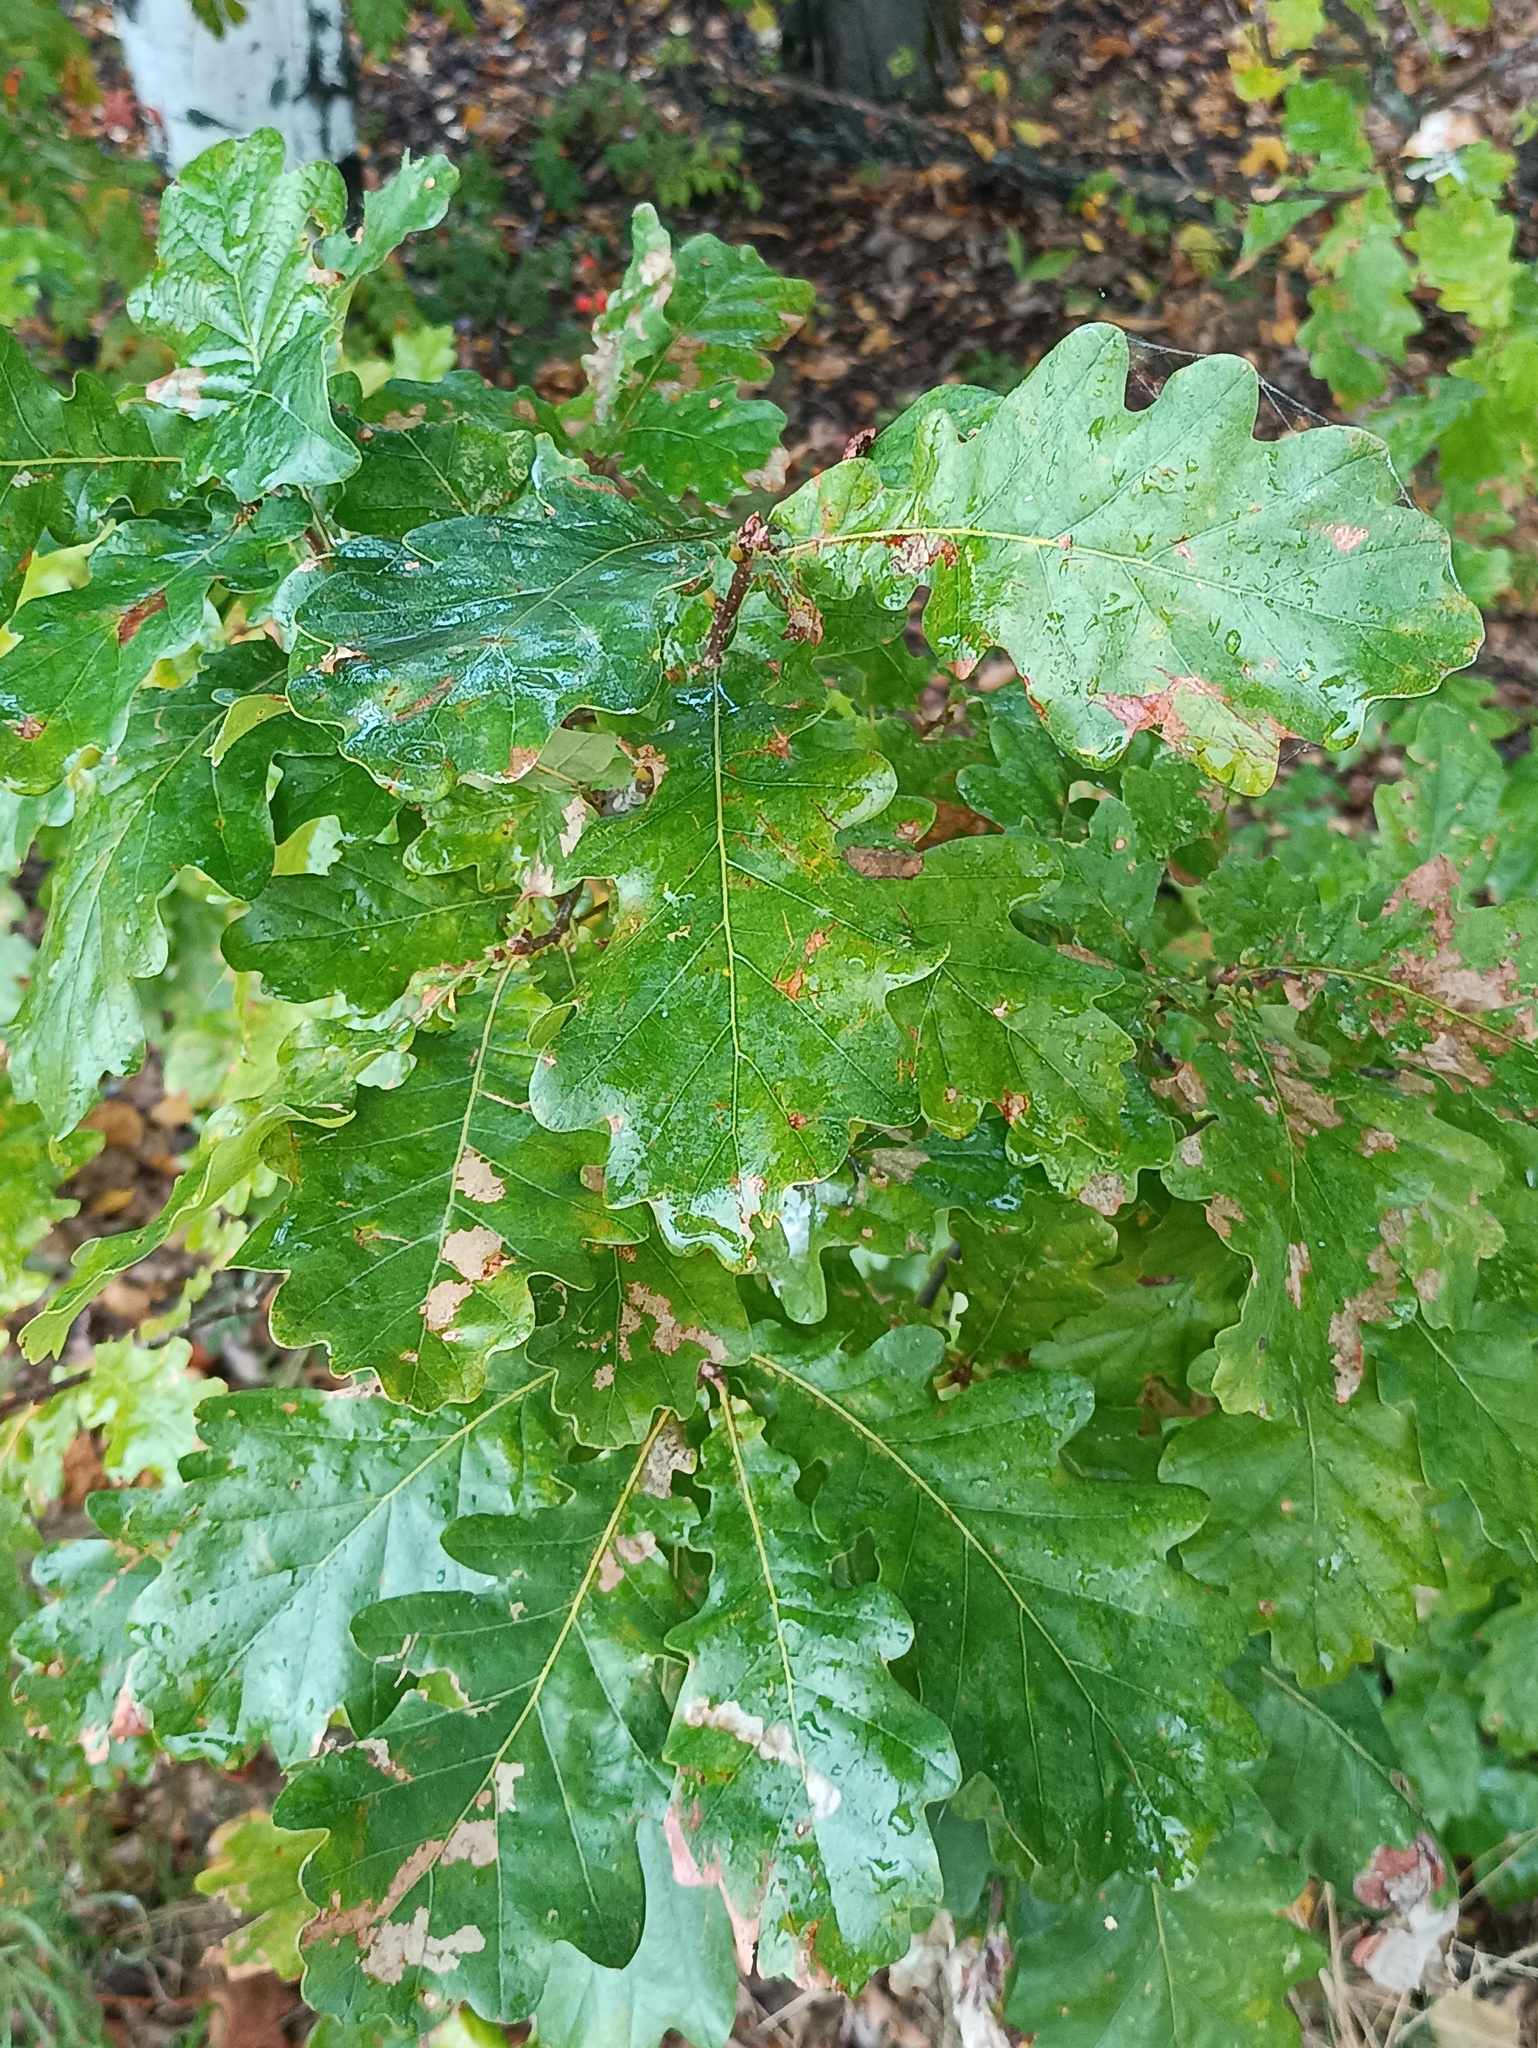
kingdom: Plantae
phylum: Tracheophyta
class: Magnoliopsida
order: Fagales
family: Fagaceae
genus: Quercus
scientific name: Quercus robur
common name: Pedunculate oak
